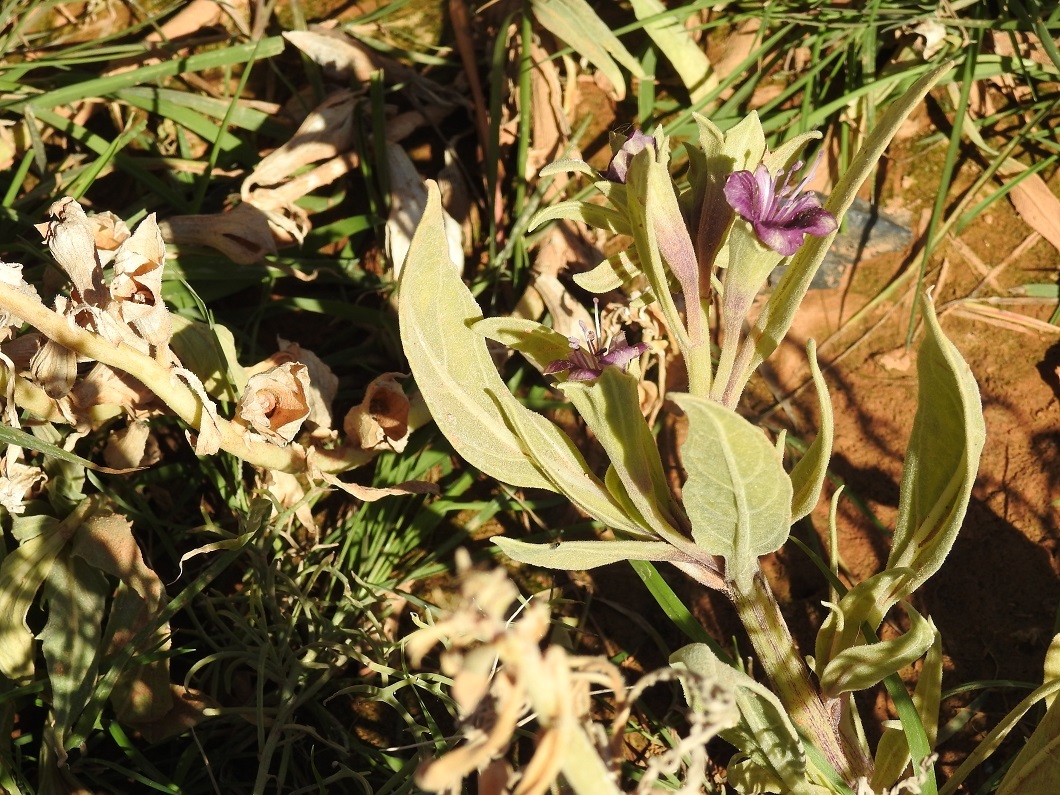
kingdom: Plantae
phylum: Tracheophyta
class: Magnoliopsida
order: Solanales
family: Solanaceae
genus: Hyoscyamus
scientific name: Hyoscyamus muticus
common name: Henbane
